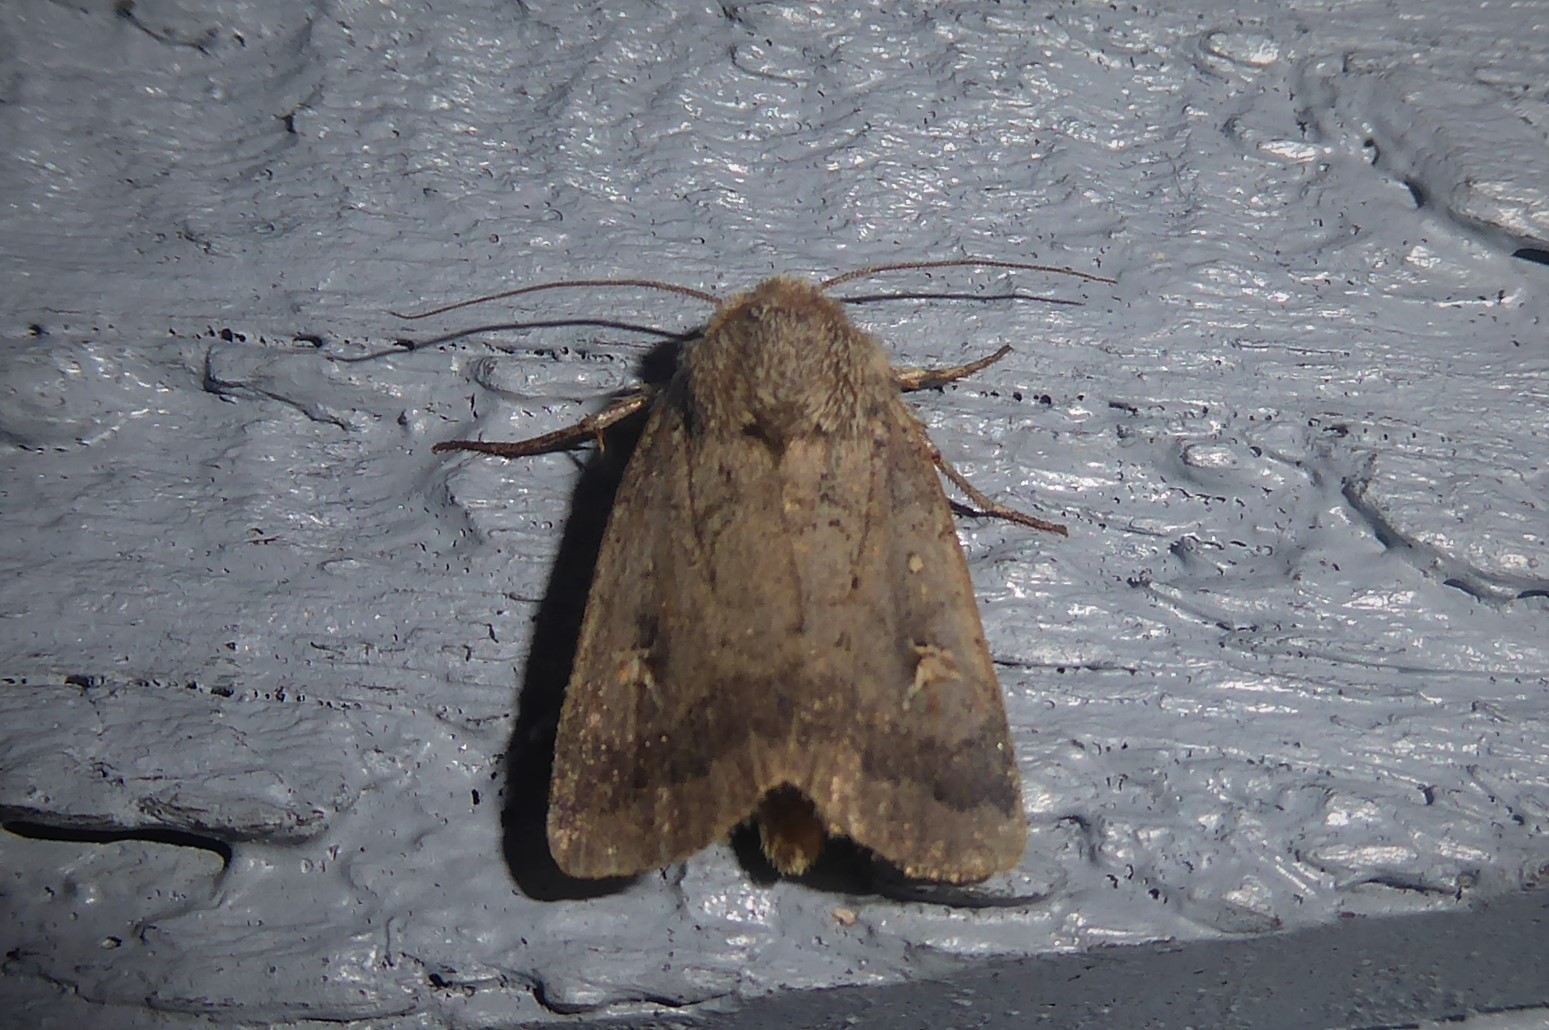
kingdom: Animalia
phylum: Arthropoda
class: Insecta
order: Lepidoptera
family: Noctuidae
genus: Proteuxoa
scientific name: Proteuxoa tetronycha
